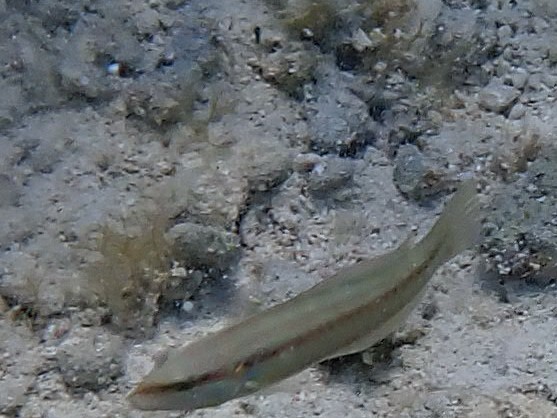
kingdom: Animalia
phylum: Chordata
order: Perciformes
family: Labridae
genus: Halichoeres
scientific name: Halichoeres bivittatus
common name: Slippery dick
